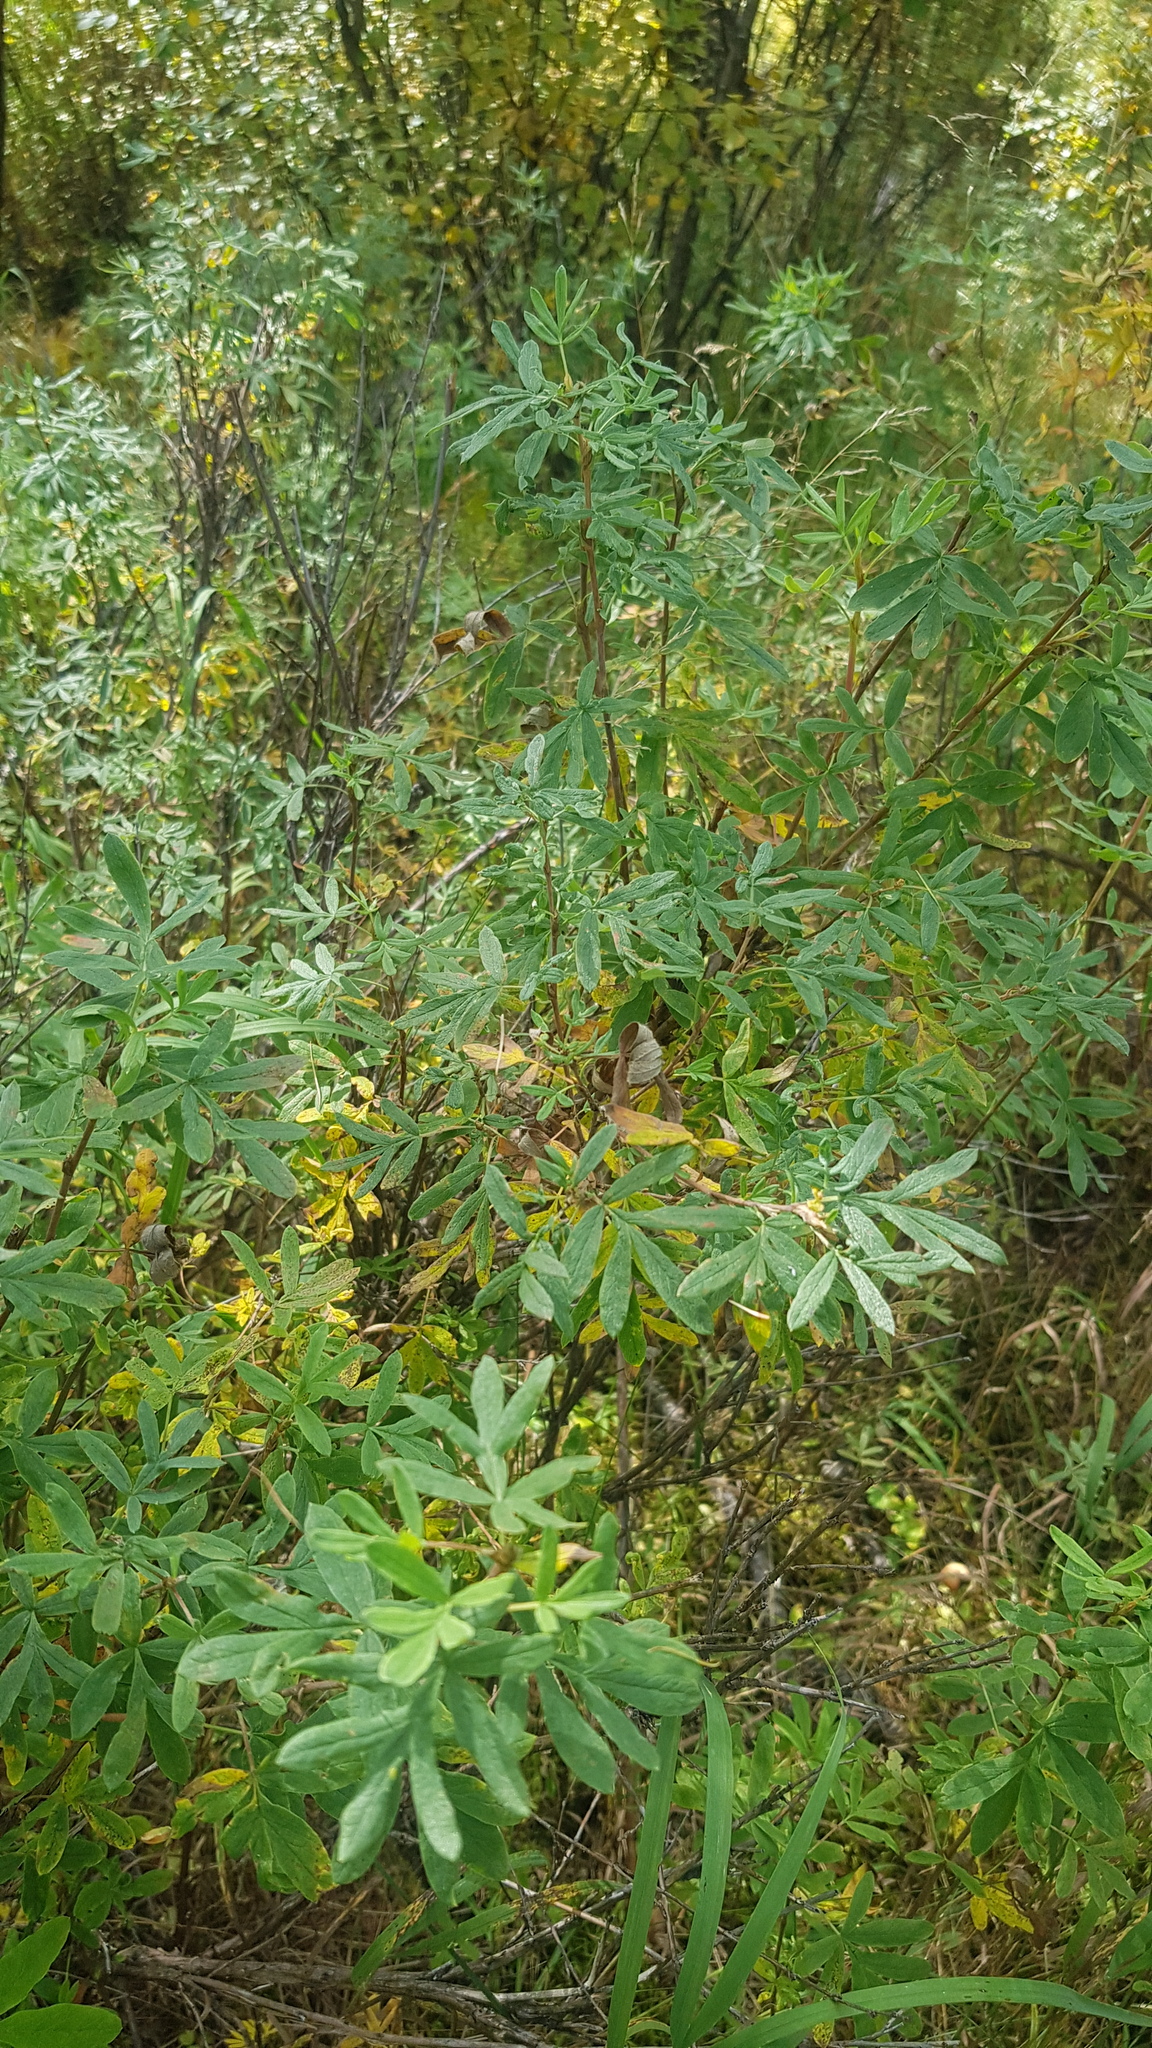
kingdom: Plantae
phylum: Tracheophyta
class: Magnoliopsida
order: Rosales
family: Rosaceae
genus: Dasiphora
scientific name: Dasiphora fruticosa
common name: Shrubby cinquefoil
